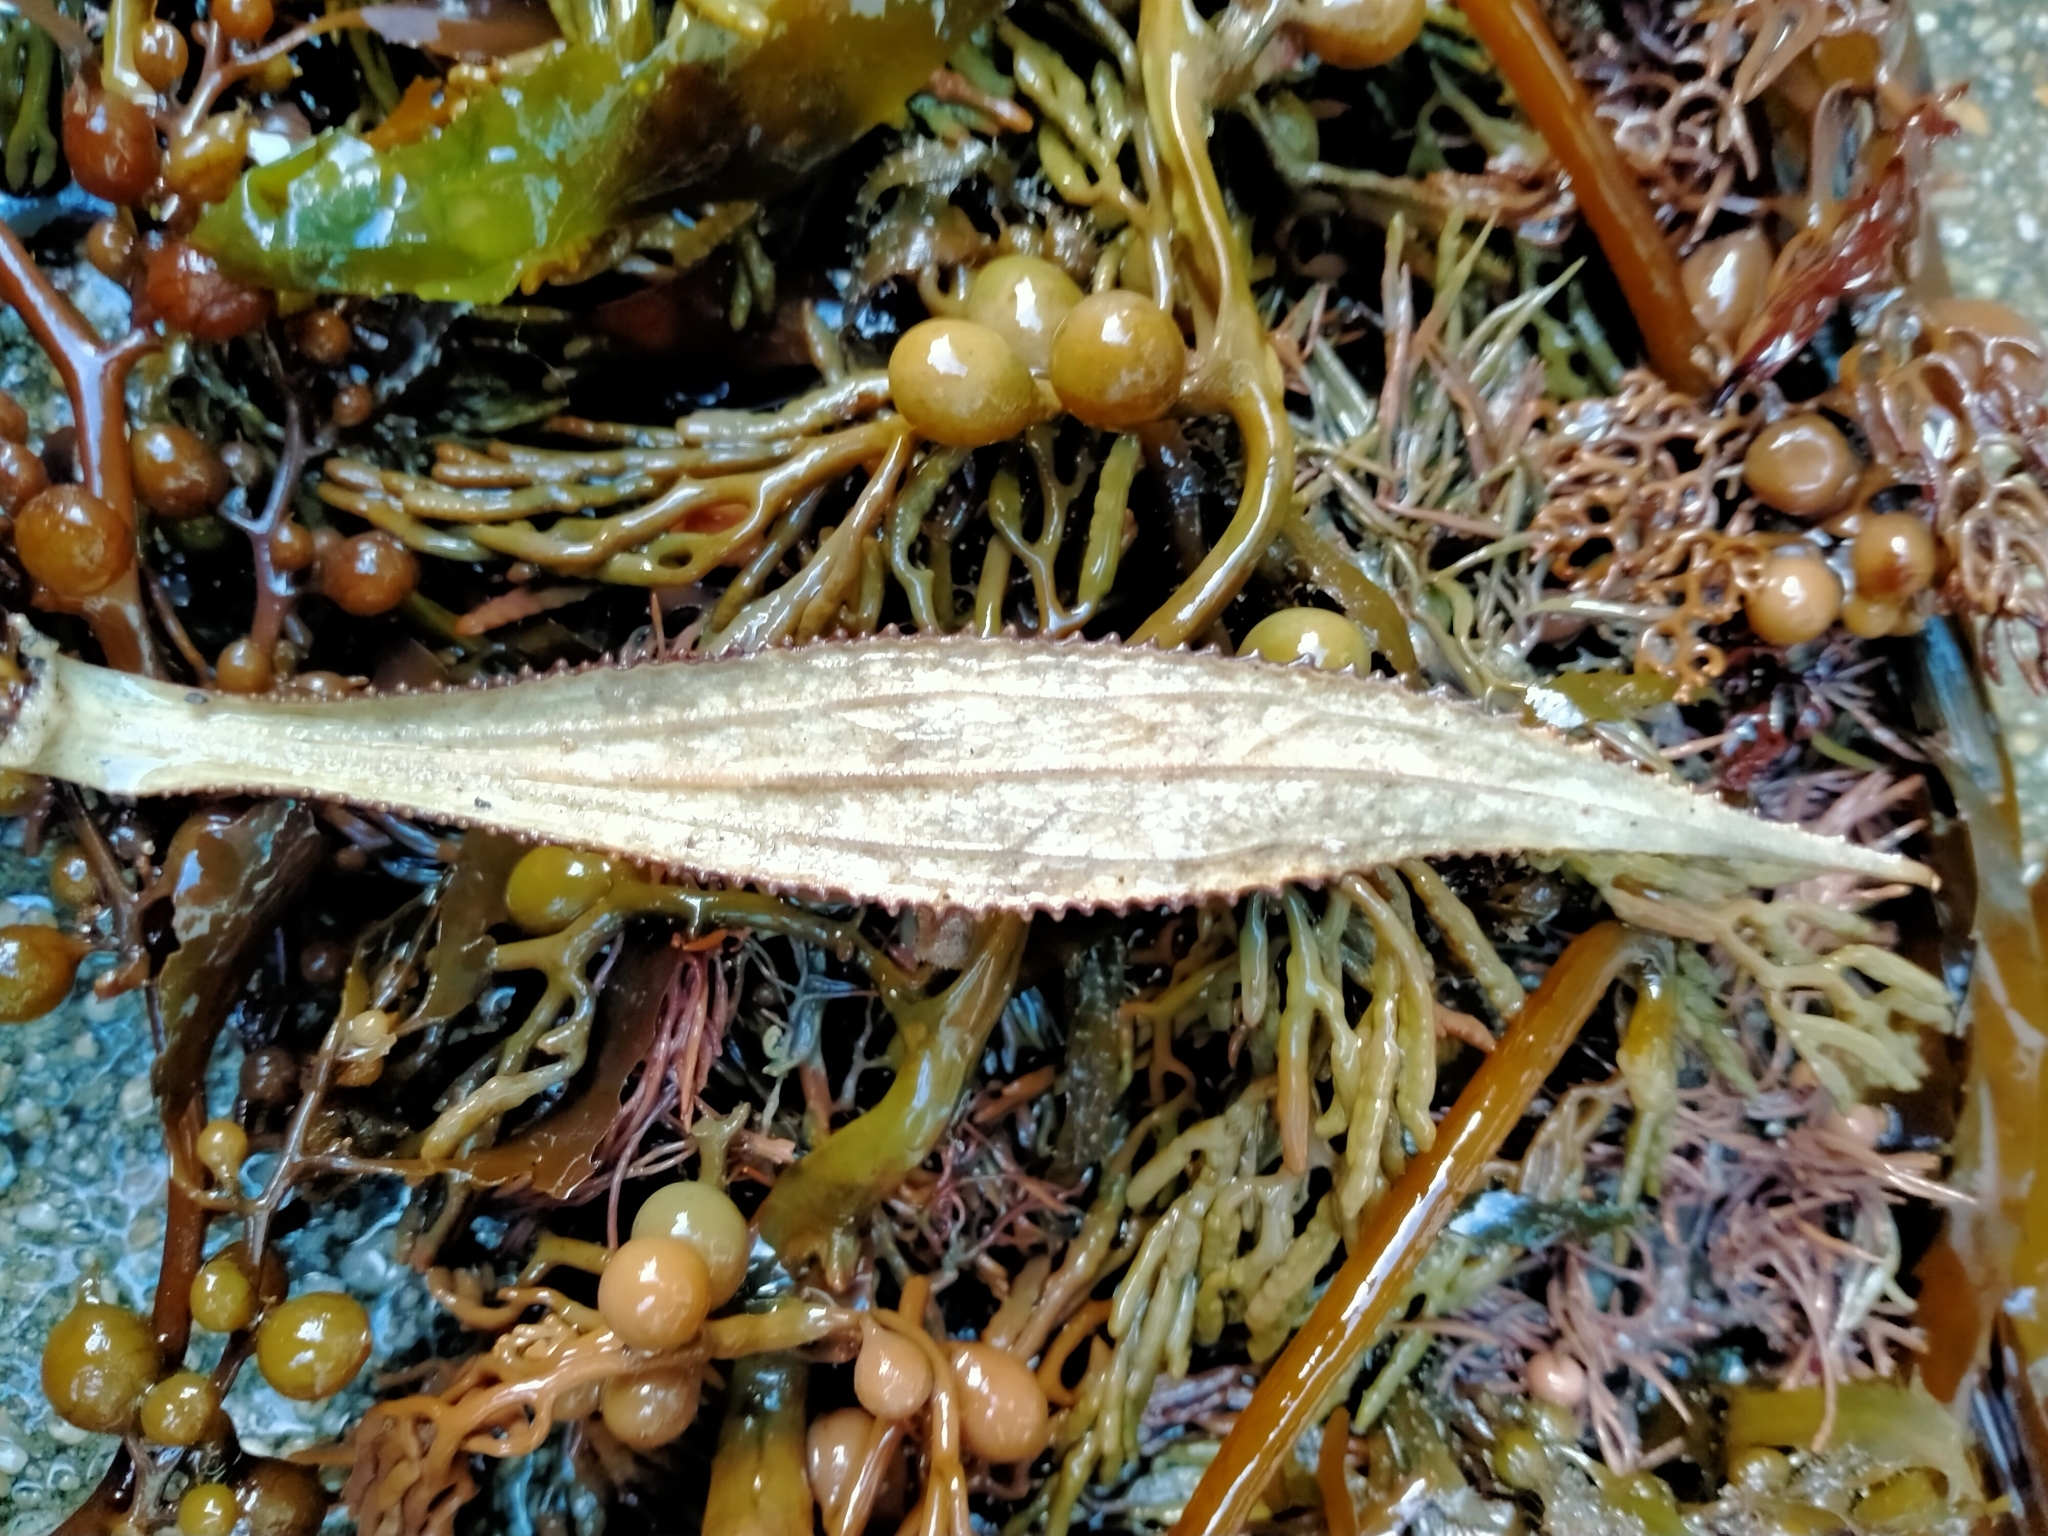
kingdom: Plantae
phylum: Tracheophyta
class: Magnoliopsida
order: Asterales
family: Asteraceae
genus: Macrolearia
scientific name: Macrolearia angustifolia
